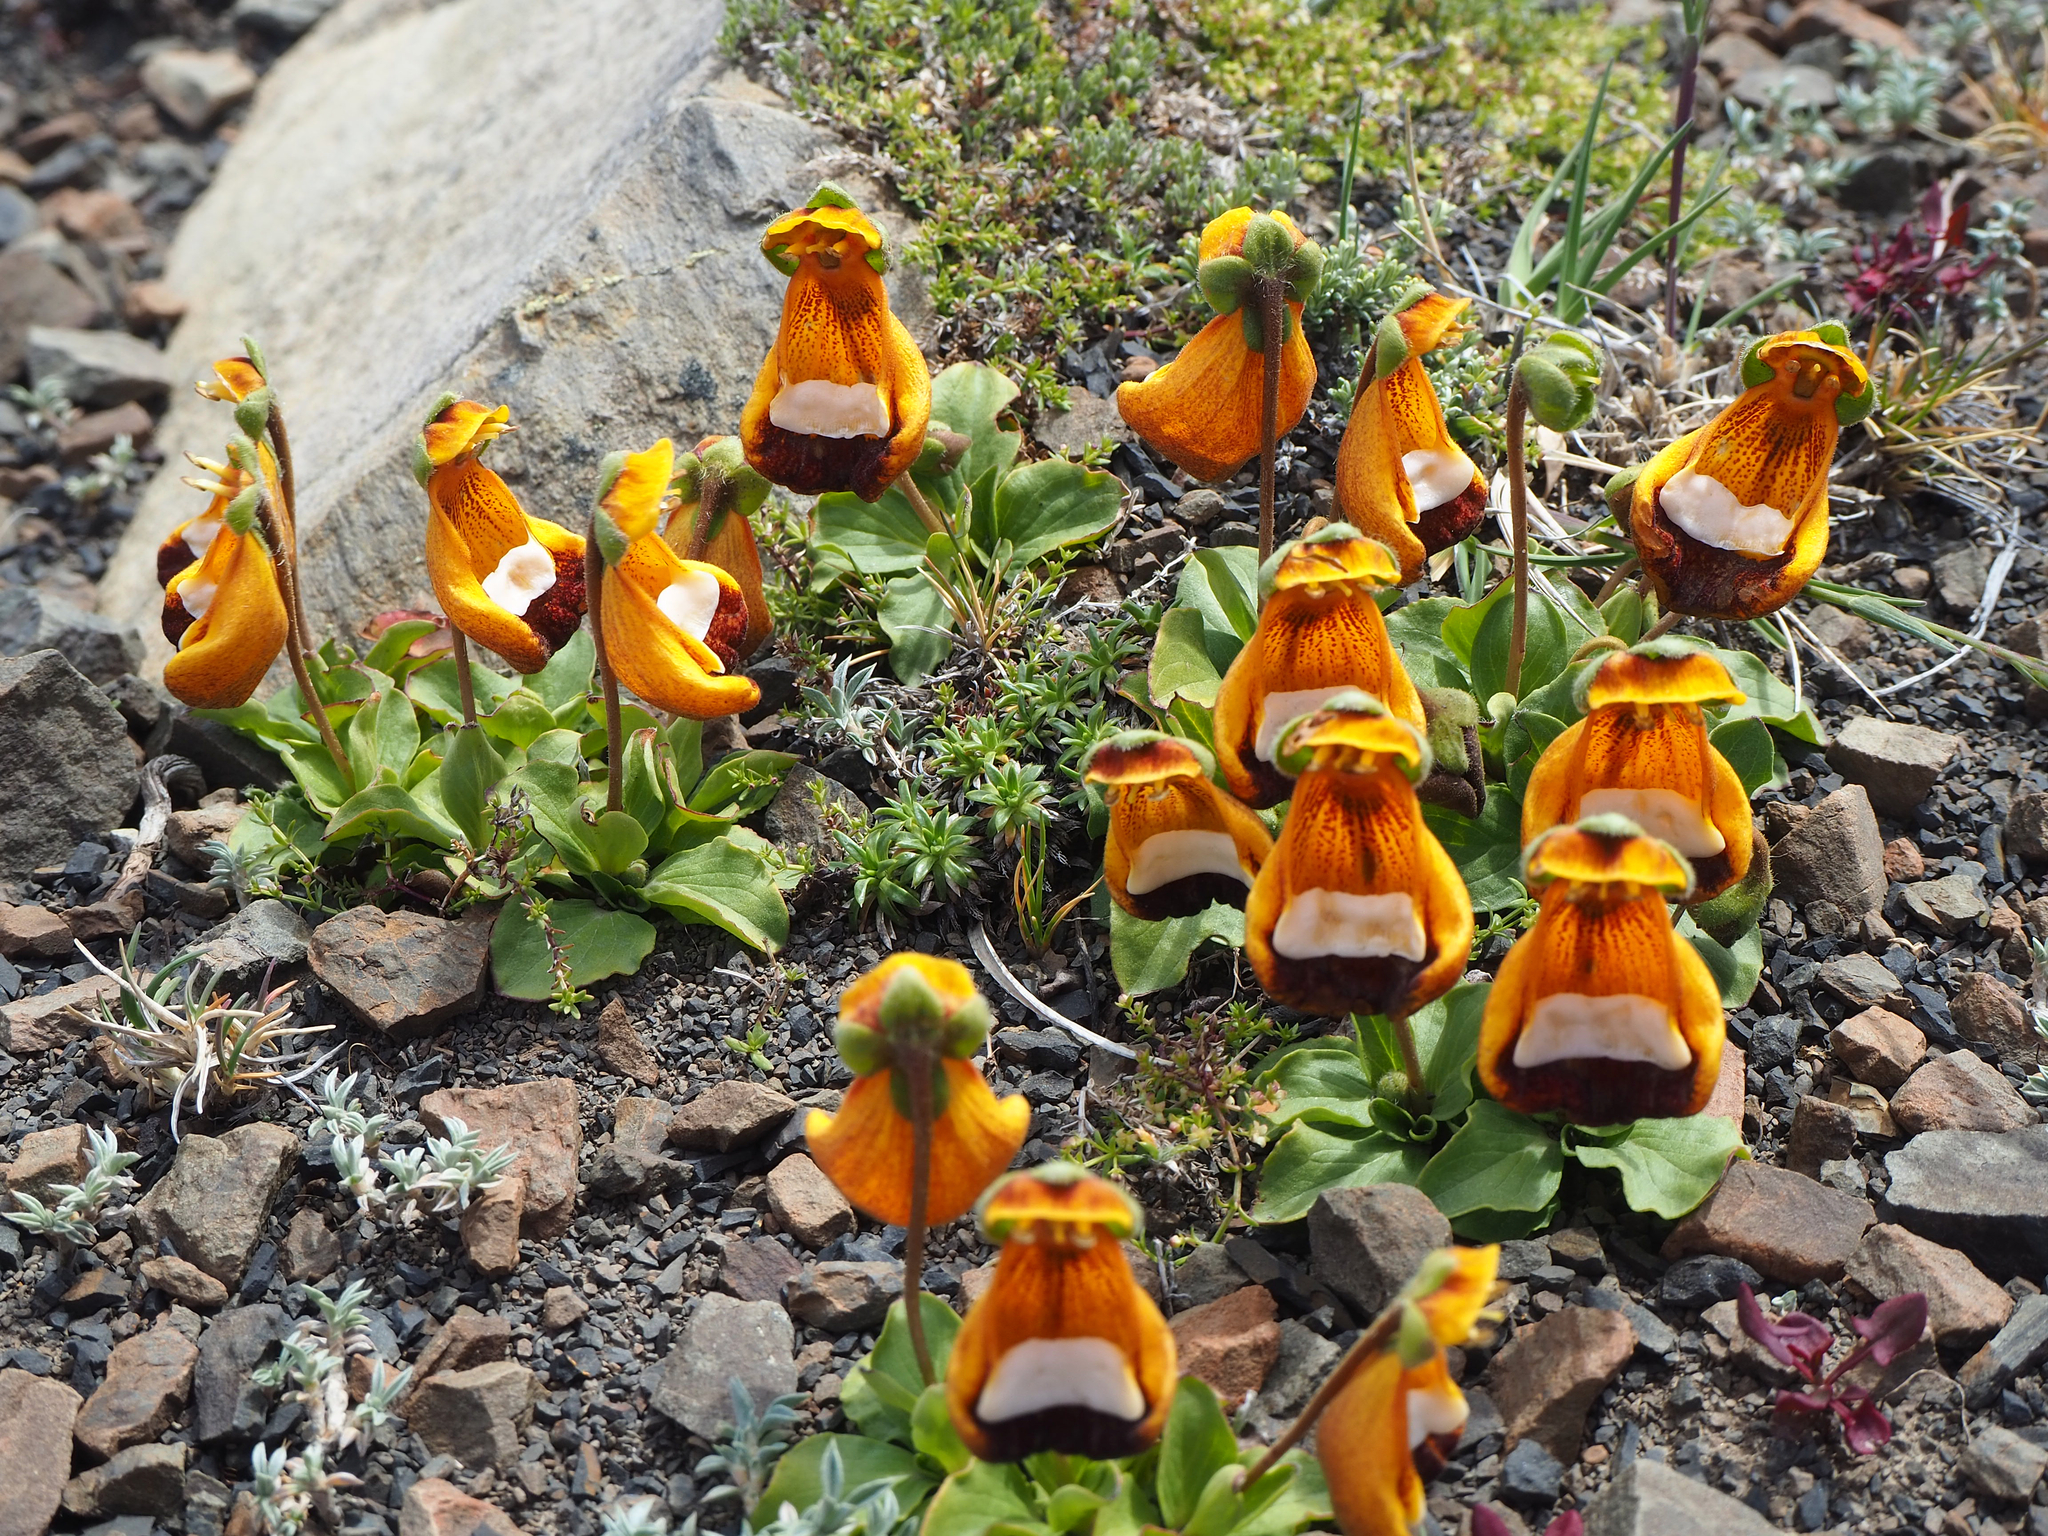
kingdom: Plantae
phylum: Tracheophyta
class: Magnoliopsida
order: Lamiales
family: Calceolariaceae
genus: Calceolaria
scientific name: Calceolaria uniflora
